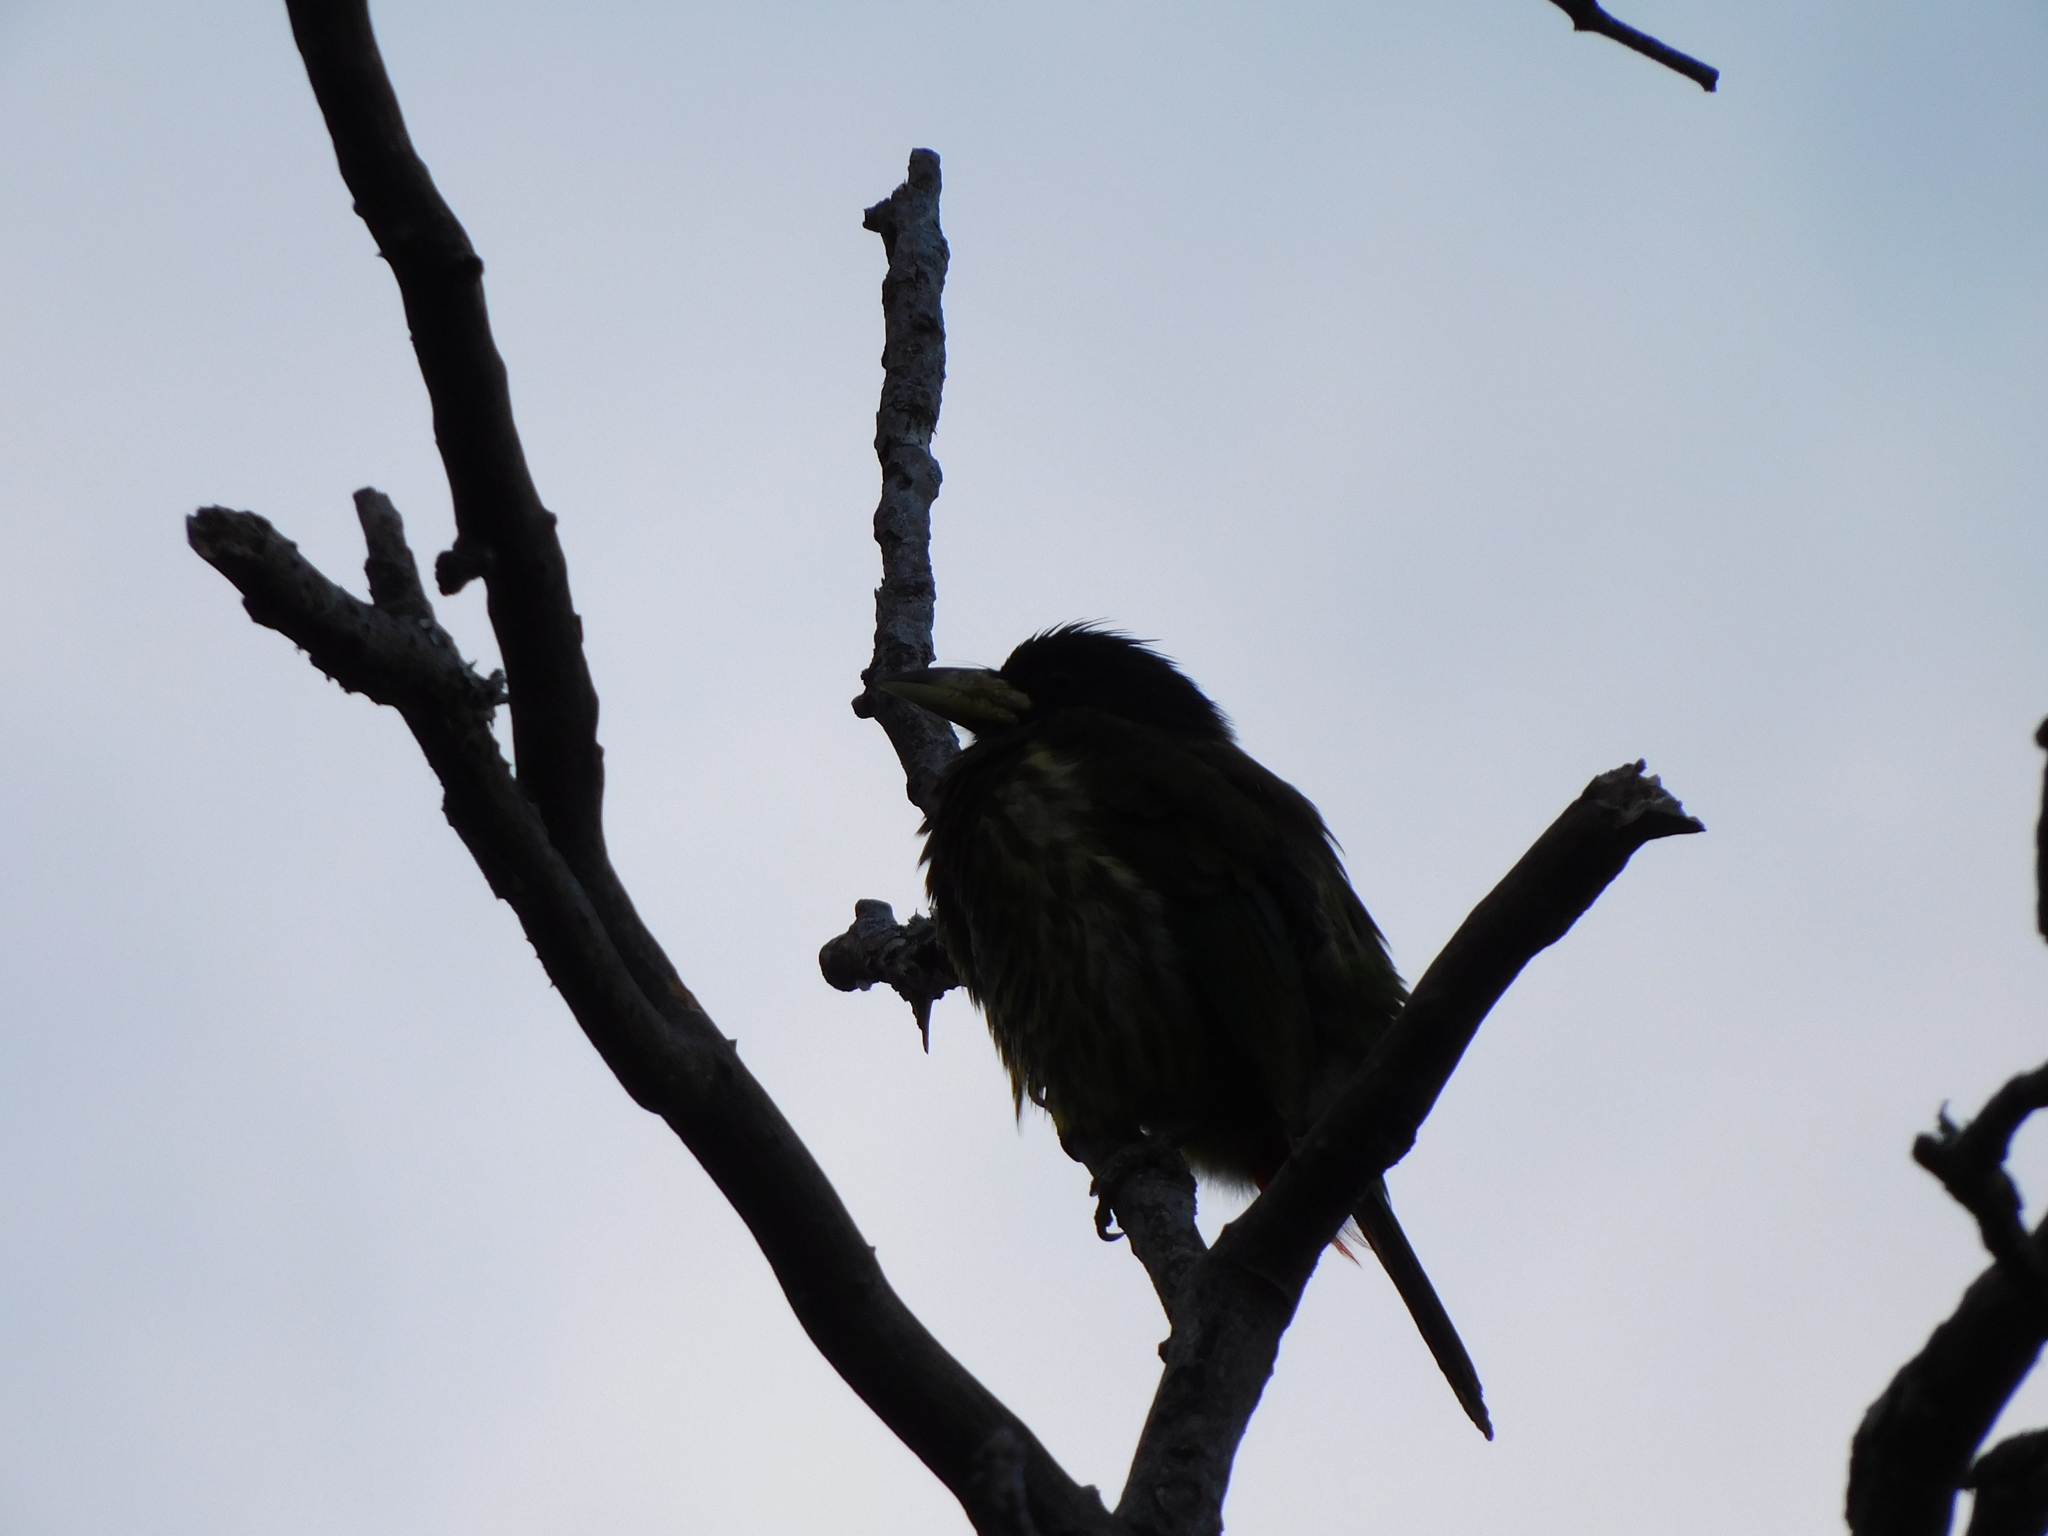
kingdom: Animalia
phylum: Chordata
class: Aves
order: Piciformes
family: Megalaimidae
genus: Psilopogon
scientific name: Psilopogon virens
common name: Great barbet
